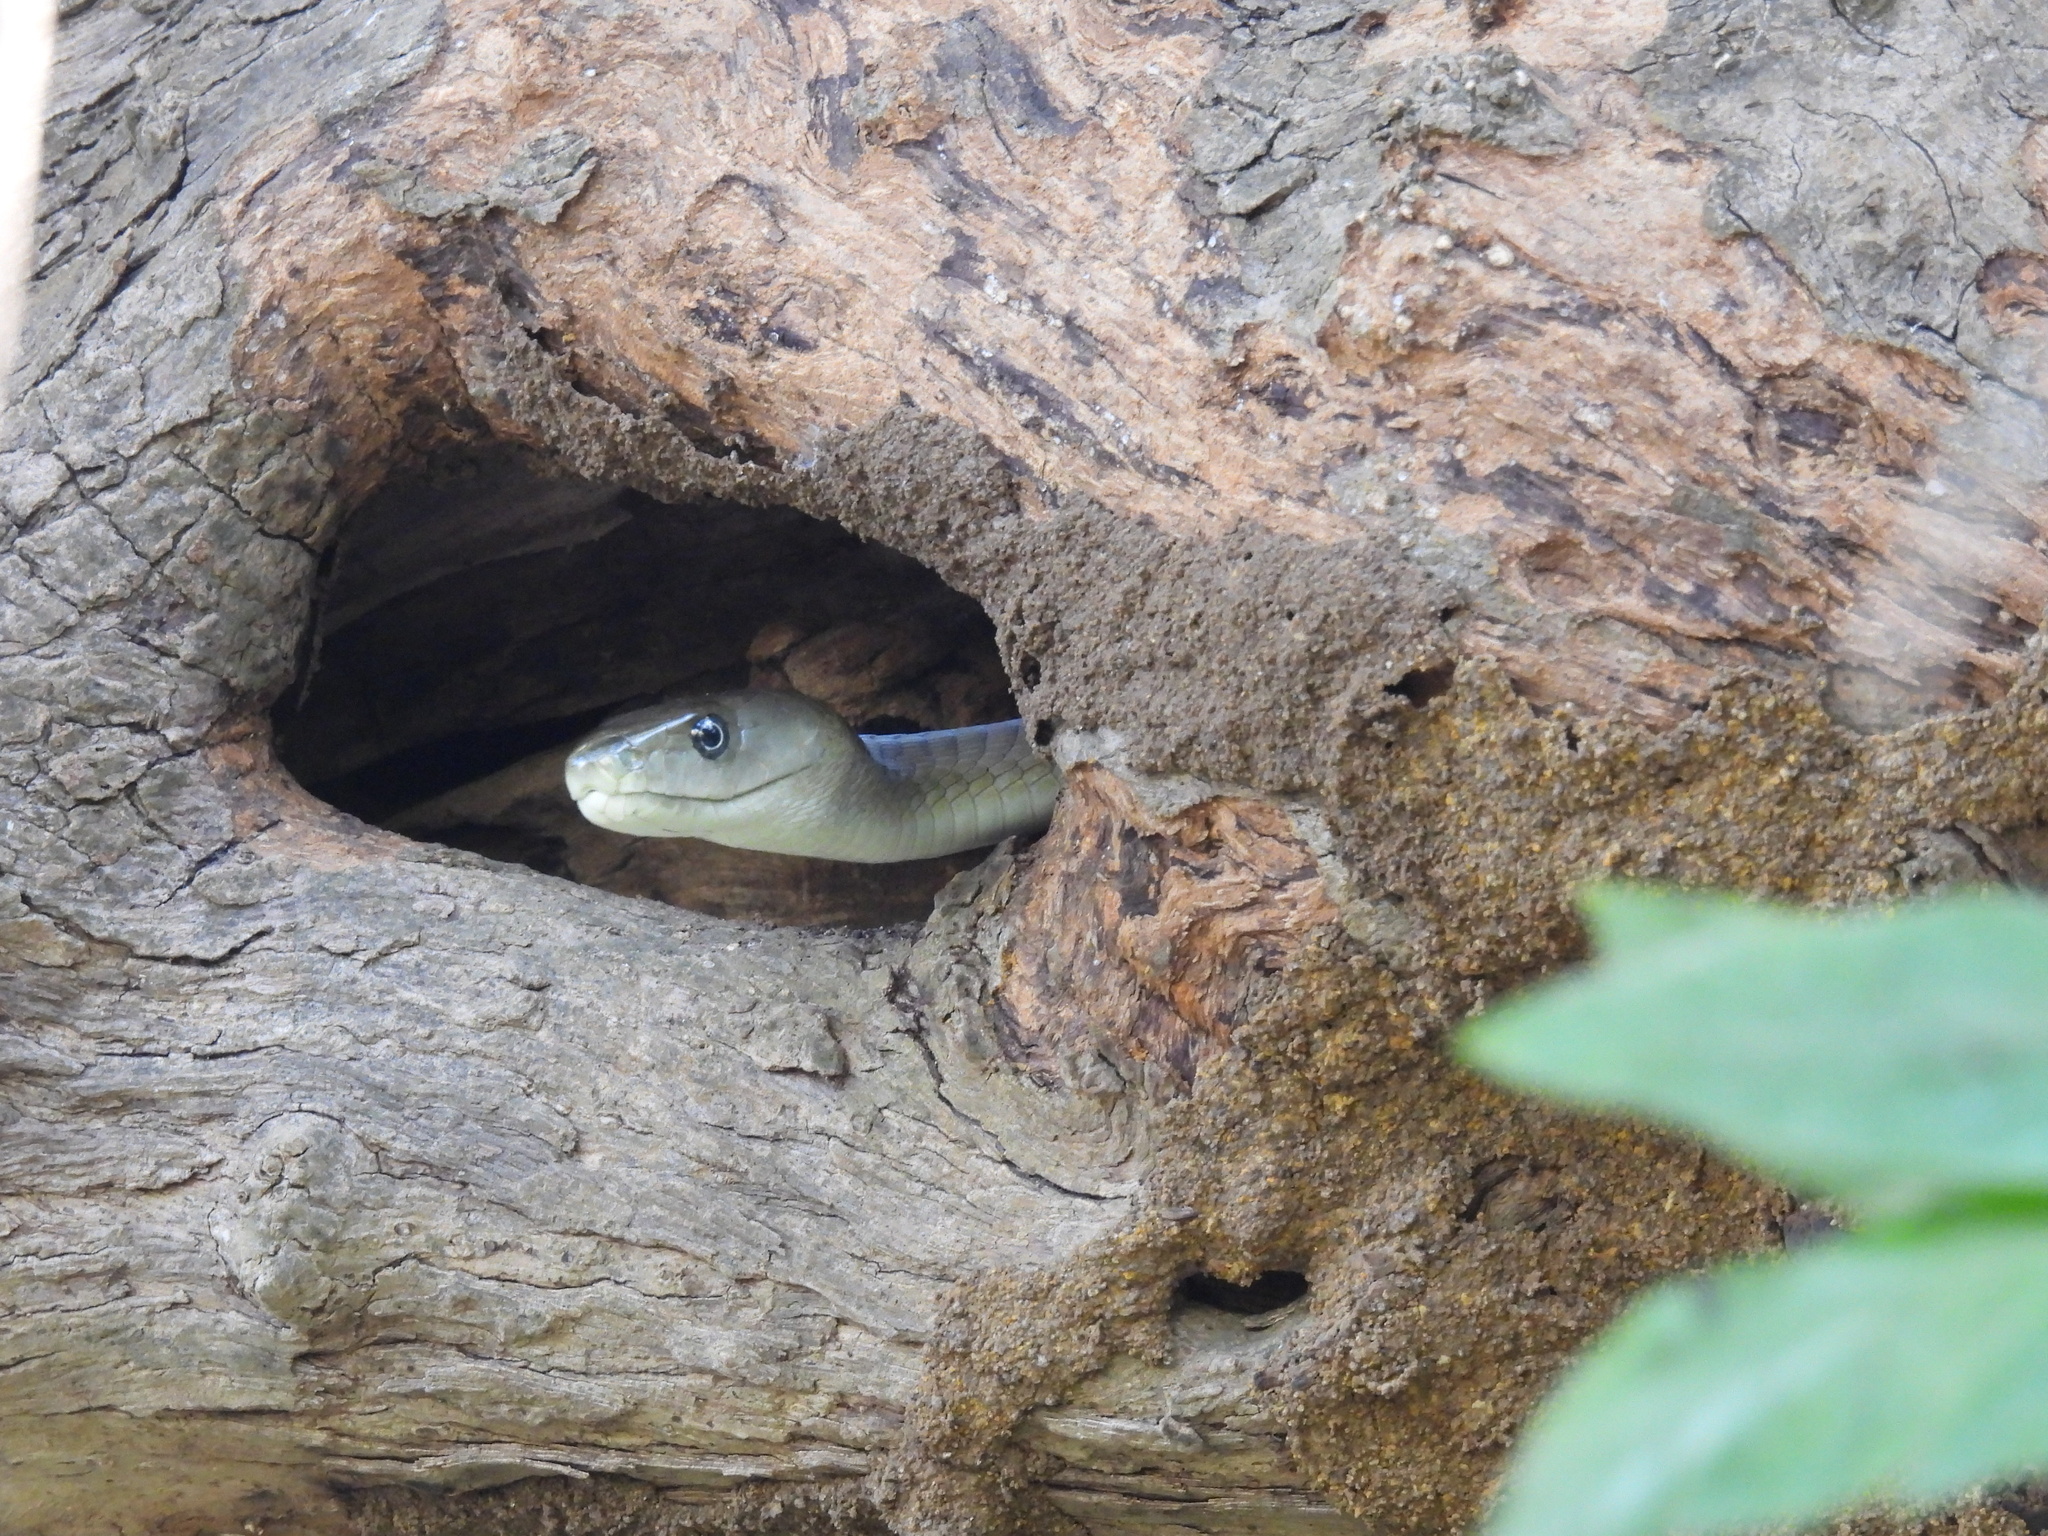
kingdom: Animalia
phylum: Chordata
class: Squamata
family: Elapidae
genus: Dendroaspis
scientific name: Dendroaspis polylepis
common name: Black mamba
